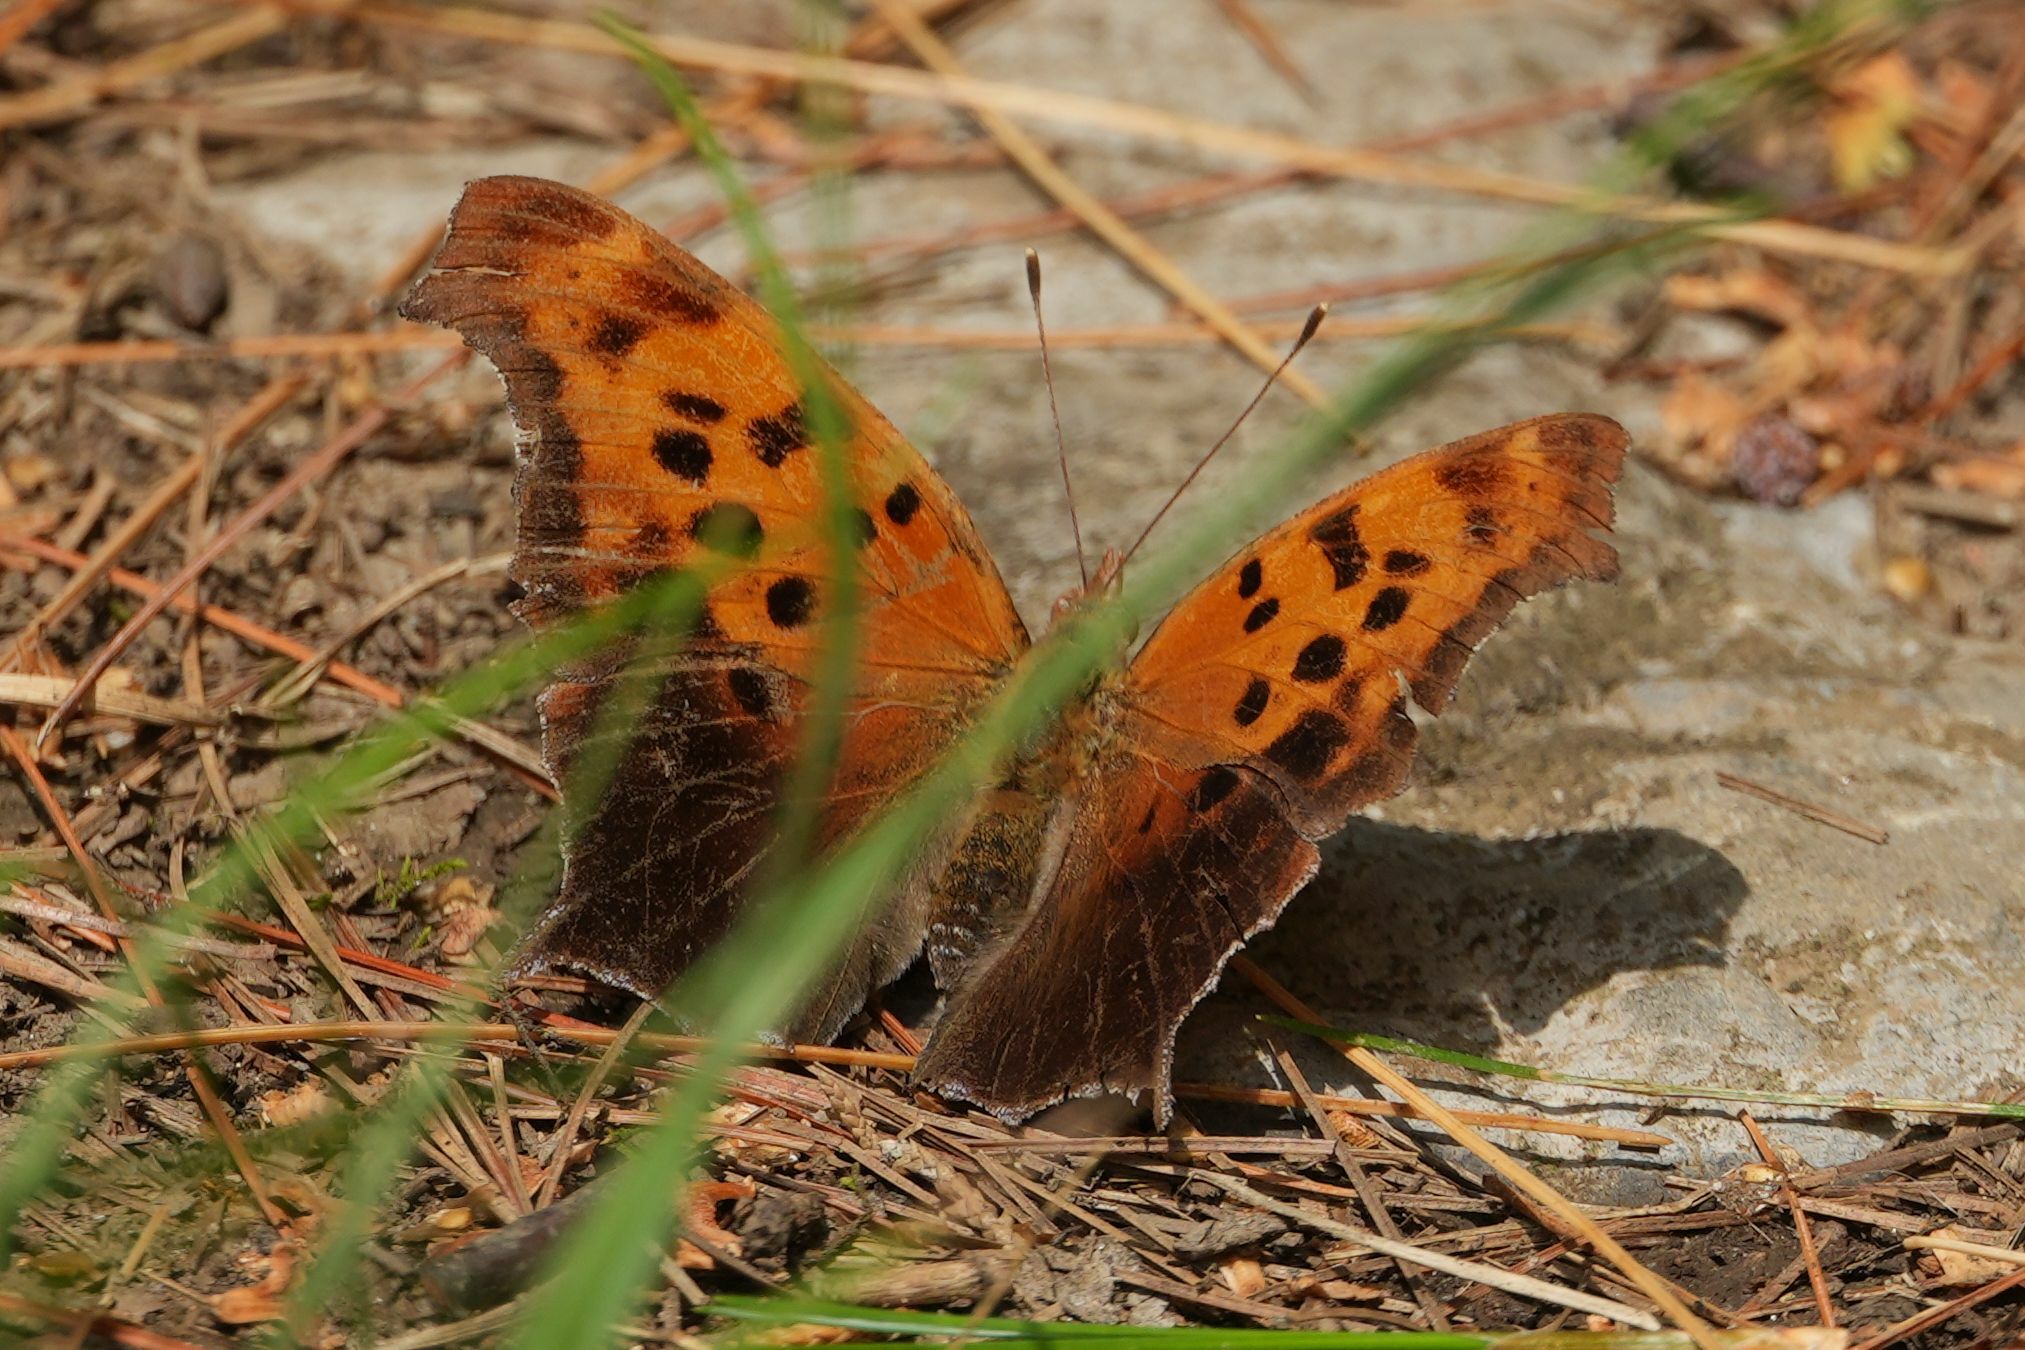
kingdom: Animalia
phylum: Arthropoda
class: Insecta
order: Lepidoptera
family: Nymphalidae
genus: Polygonia
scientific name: Polygonia interrogationis
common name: Question mark
